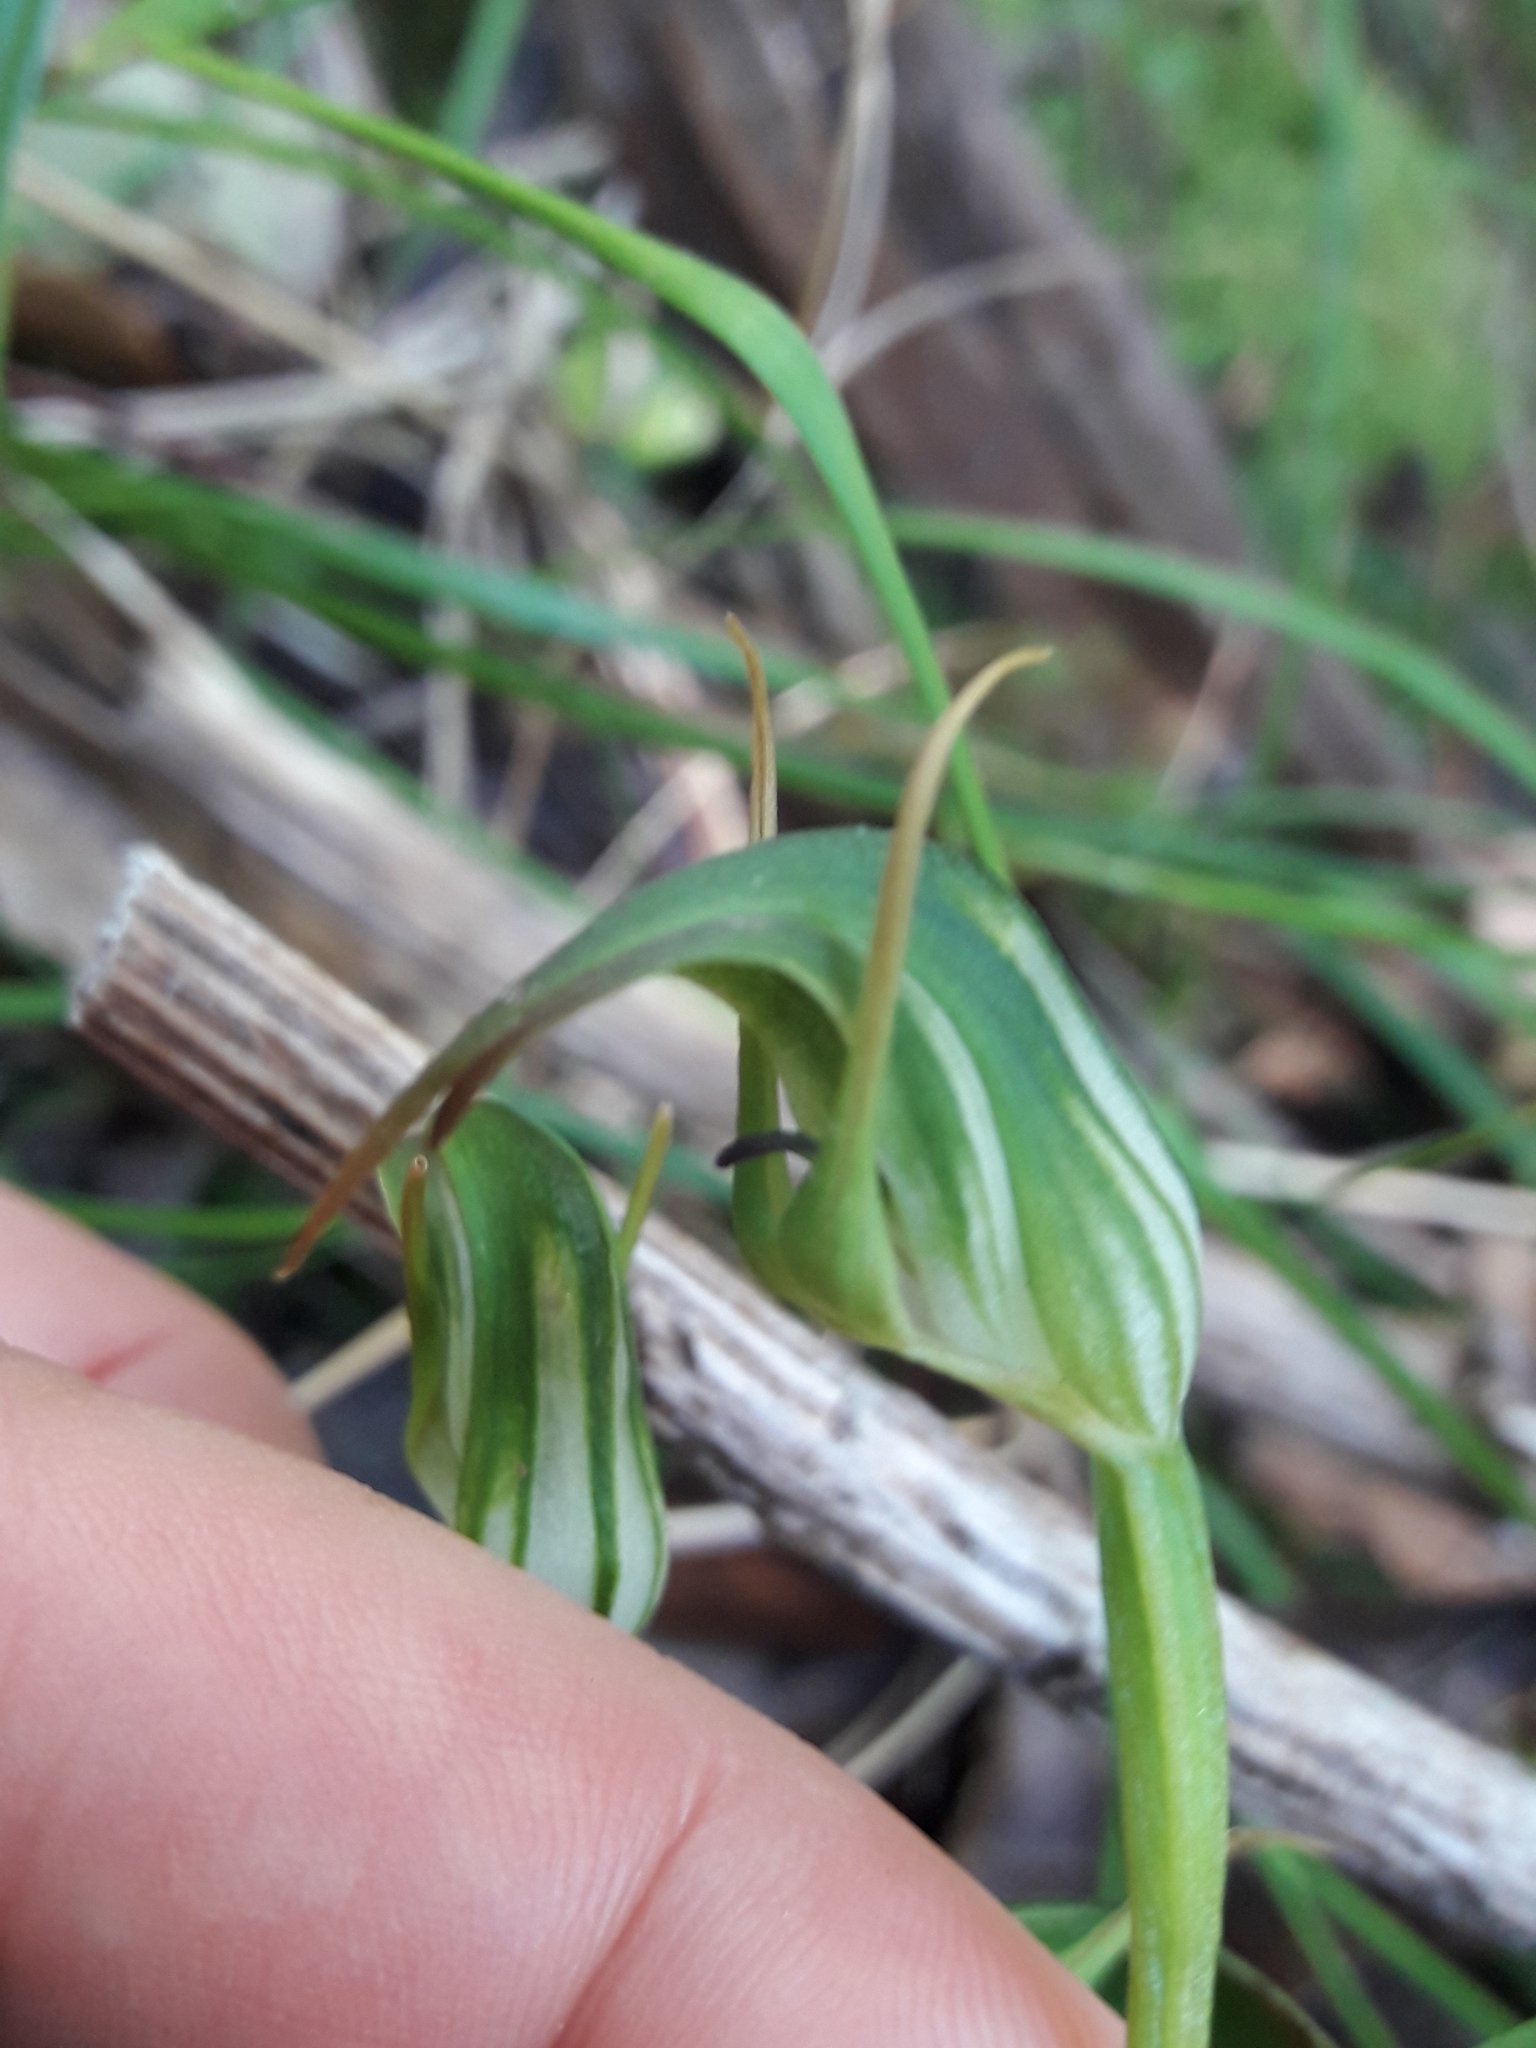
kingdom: Plantae
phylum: Tracheophyta
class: Liliopsida
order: Asparagales
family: Orchidaceae
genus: Pterostylis
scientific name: Pterostylis graminea
